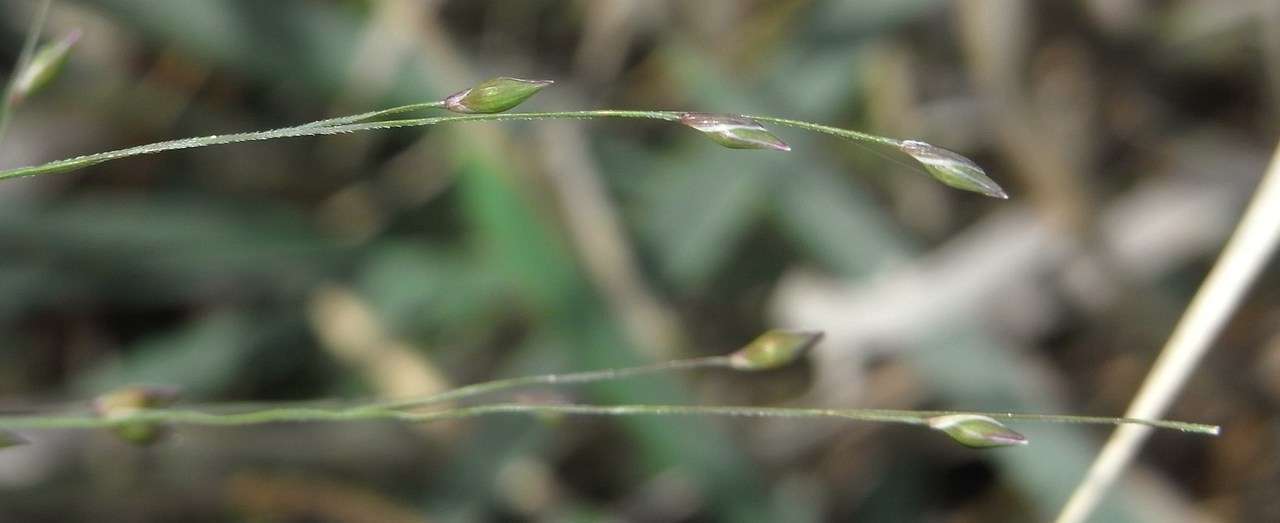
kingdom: Plantae
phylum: Tracheophyta
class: Liliopsida
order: Poales
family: Poaceae
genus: Walwhalleya
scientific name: Walwhalleya proluta
